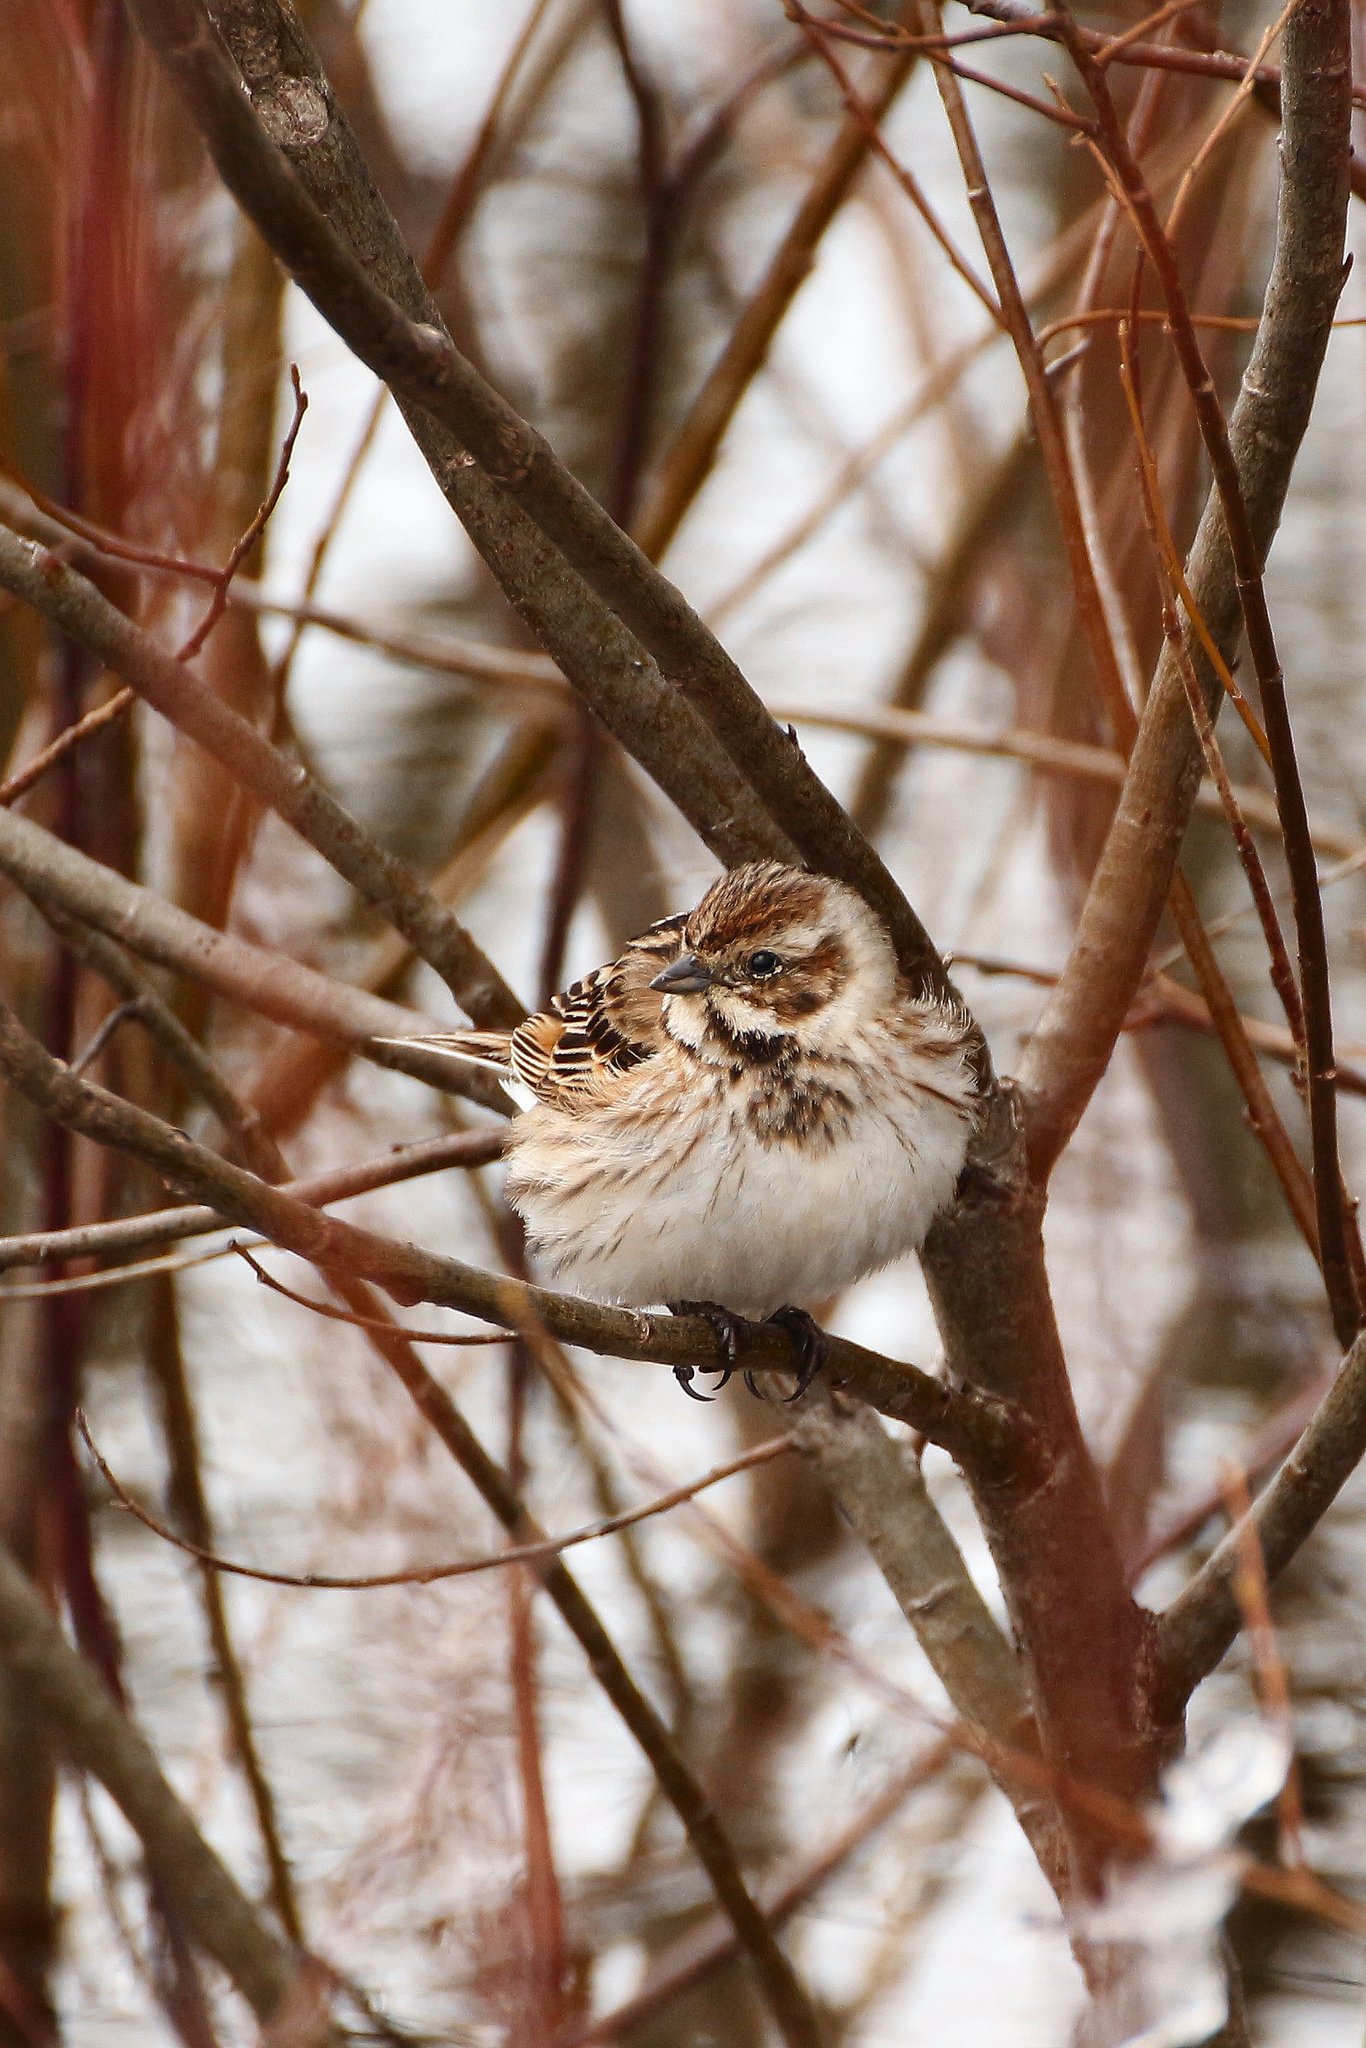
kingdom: Animalia
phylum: Chordata
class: Aves
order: Passeriformes
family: Emberizidae
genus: Emberiza
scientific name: Emberiza schoeniclus
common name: Reed bunting
